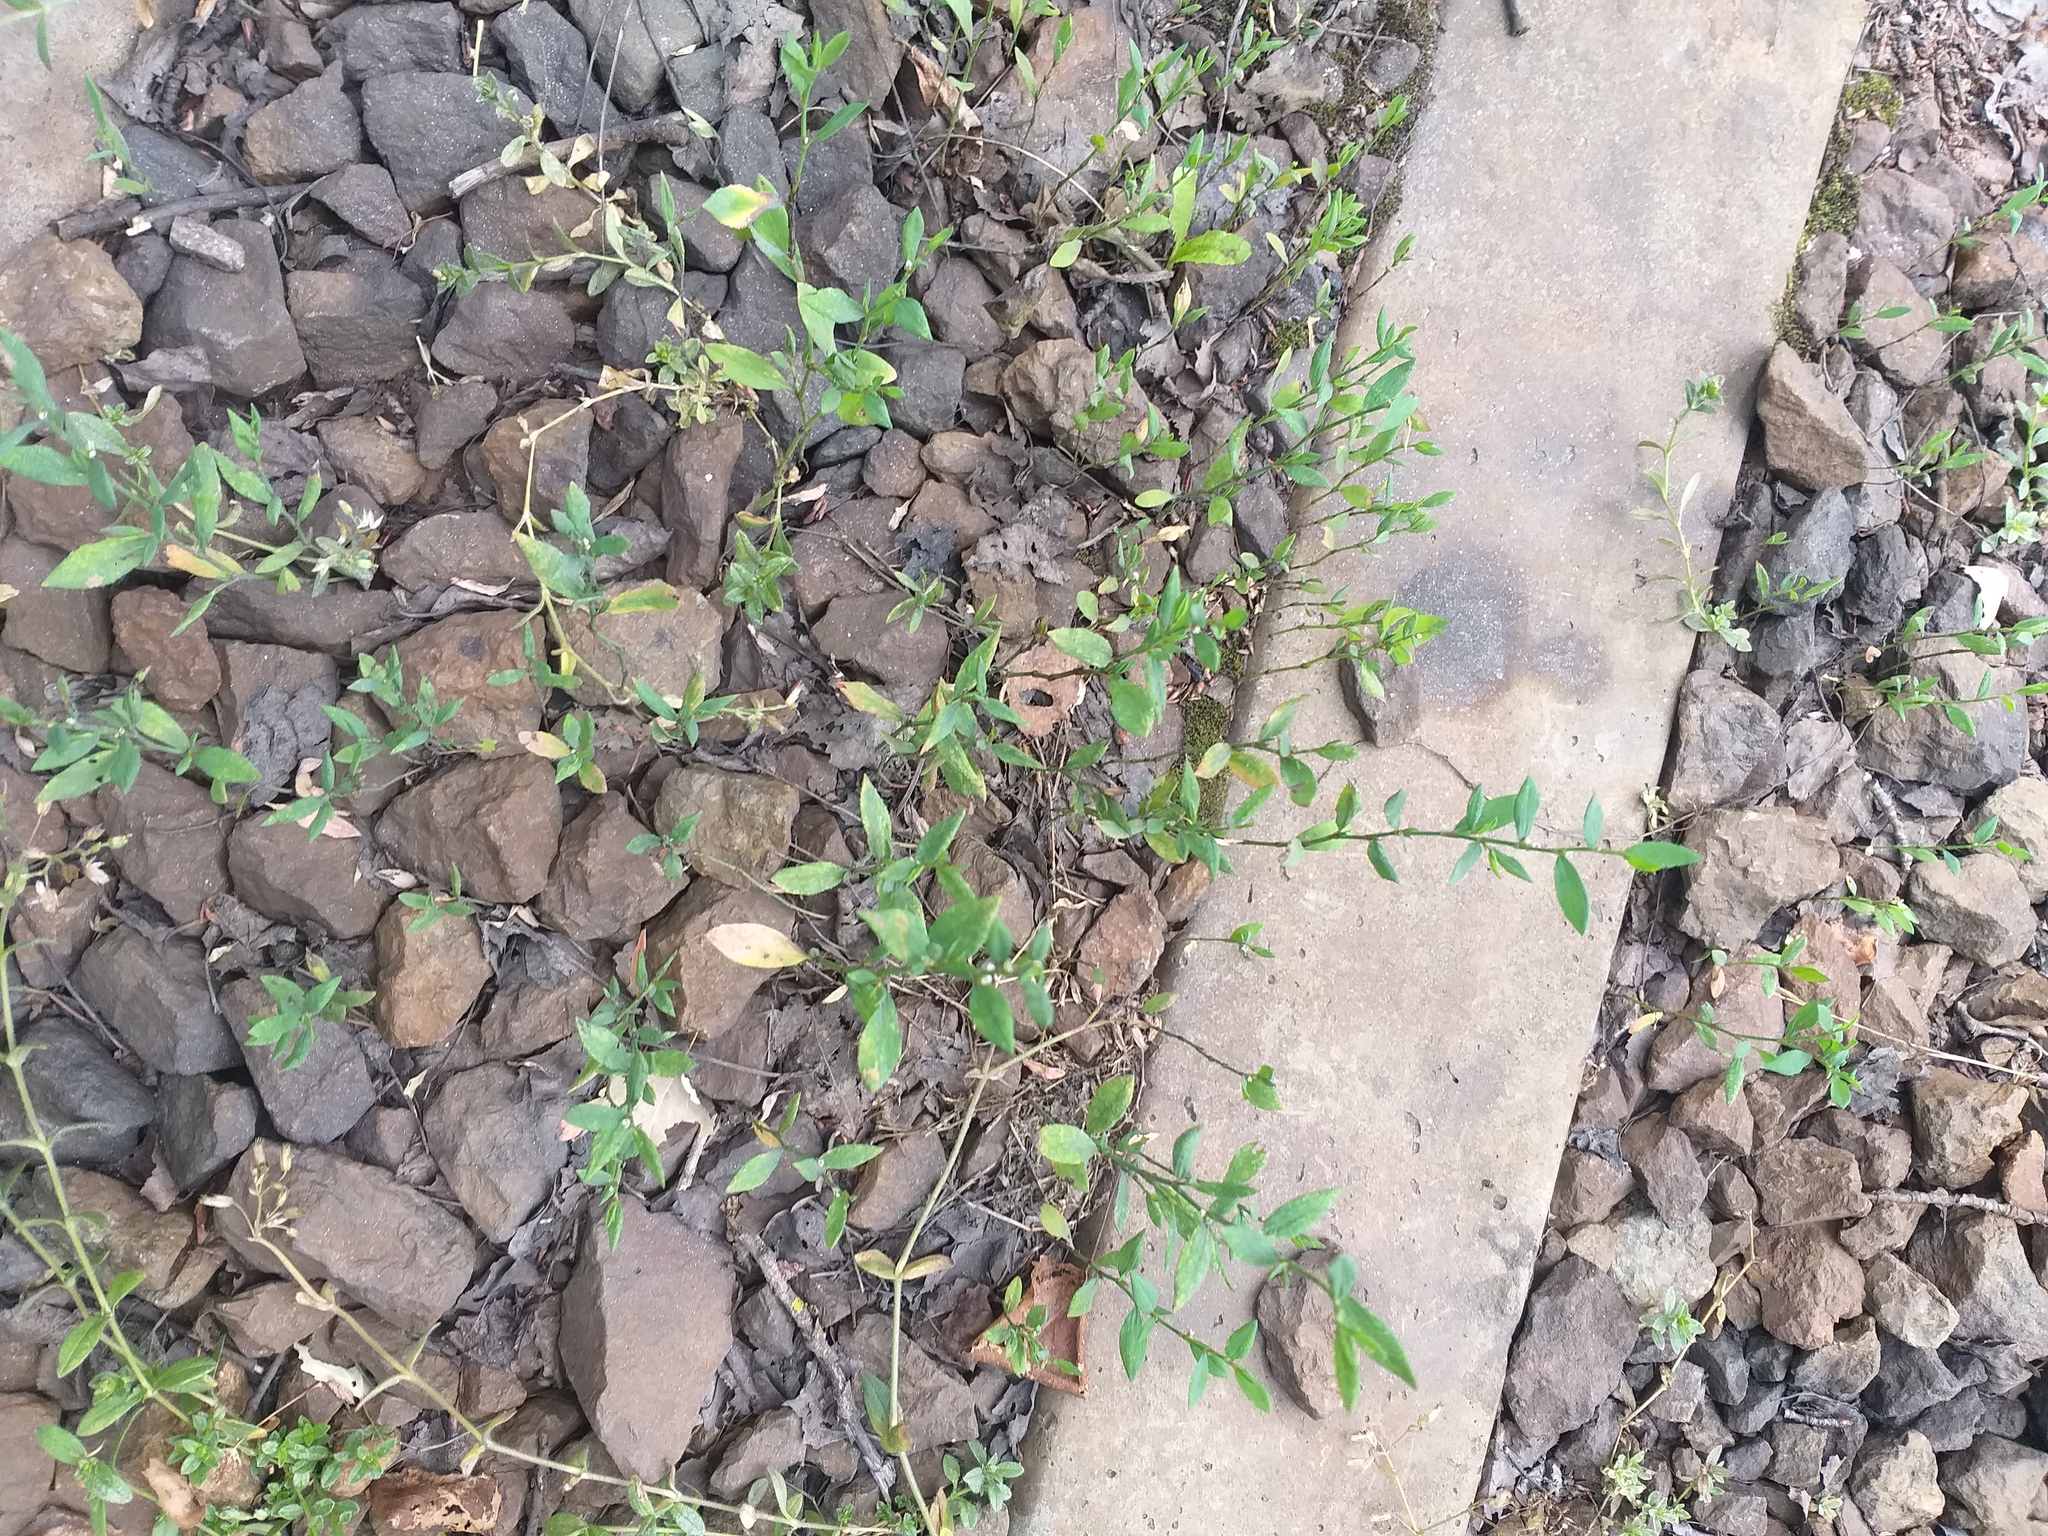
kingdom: Plantae
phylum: Tracheophyta
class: Magnoliopsida
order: Caryophyllales
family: Polygonaceae
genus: Polygonum
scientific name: Polygonum
